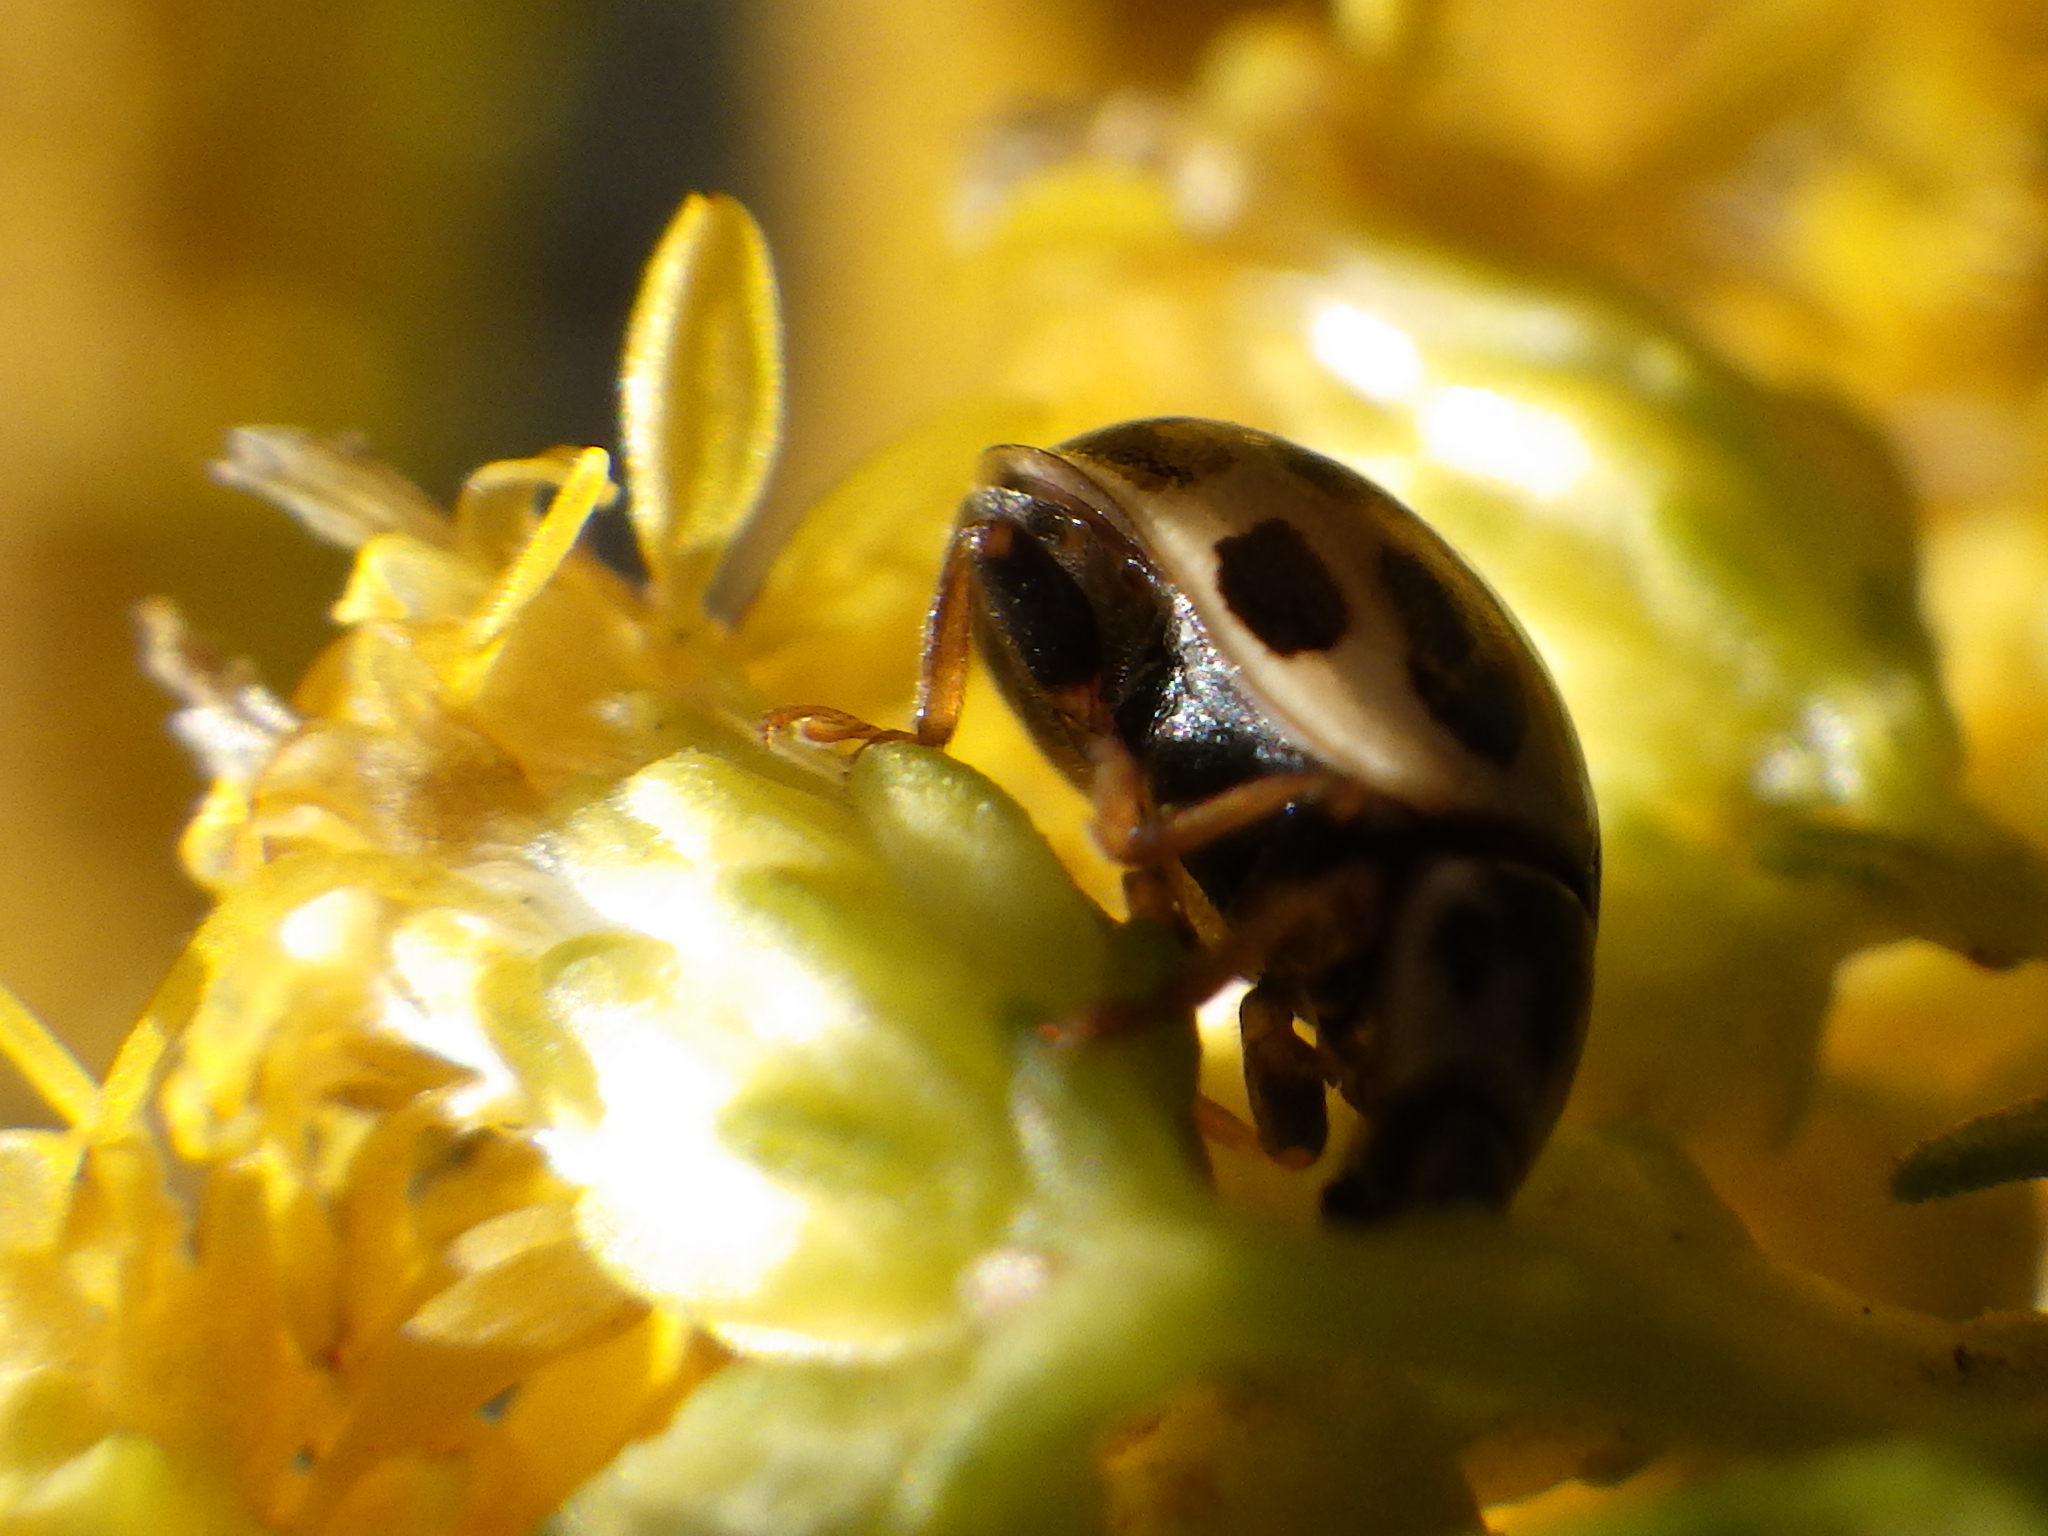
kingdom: Animalia
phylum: Arthropoda
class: Insecta
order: Coleoptera
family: Coccinellidae
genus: Propylaea
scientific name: Propylaea quatuordecimpunctata
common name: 14-spotted ladybird beetle
